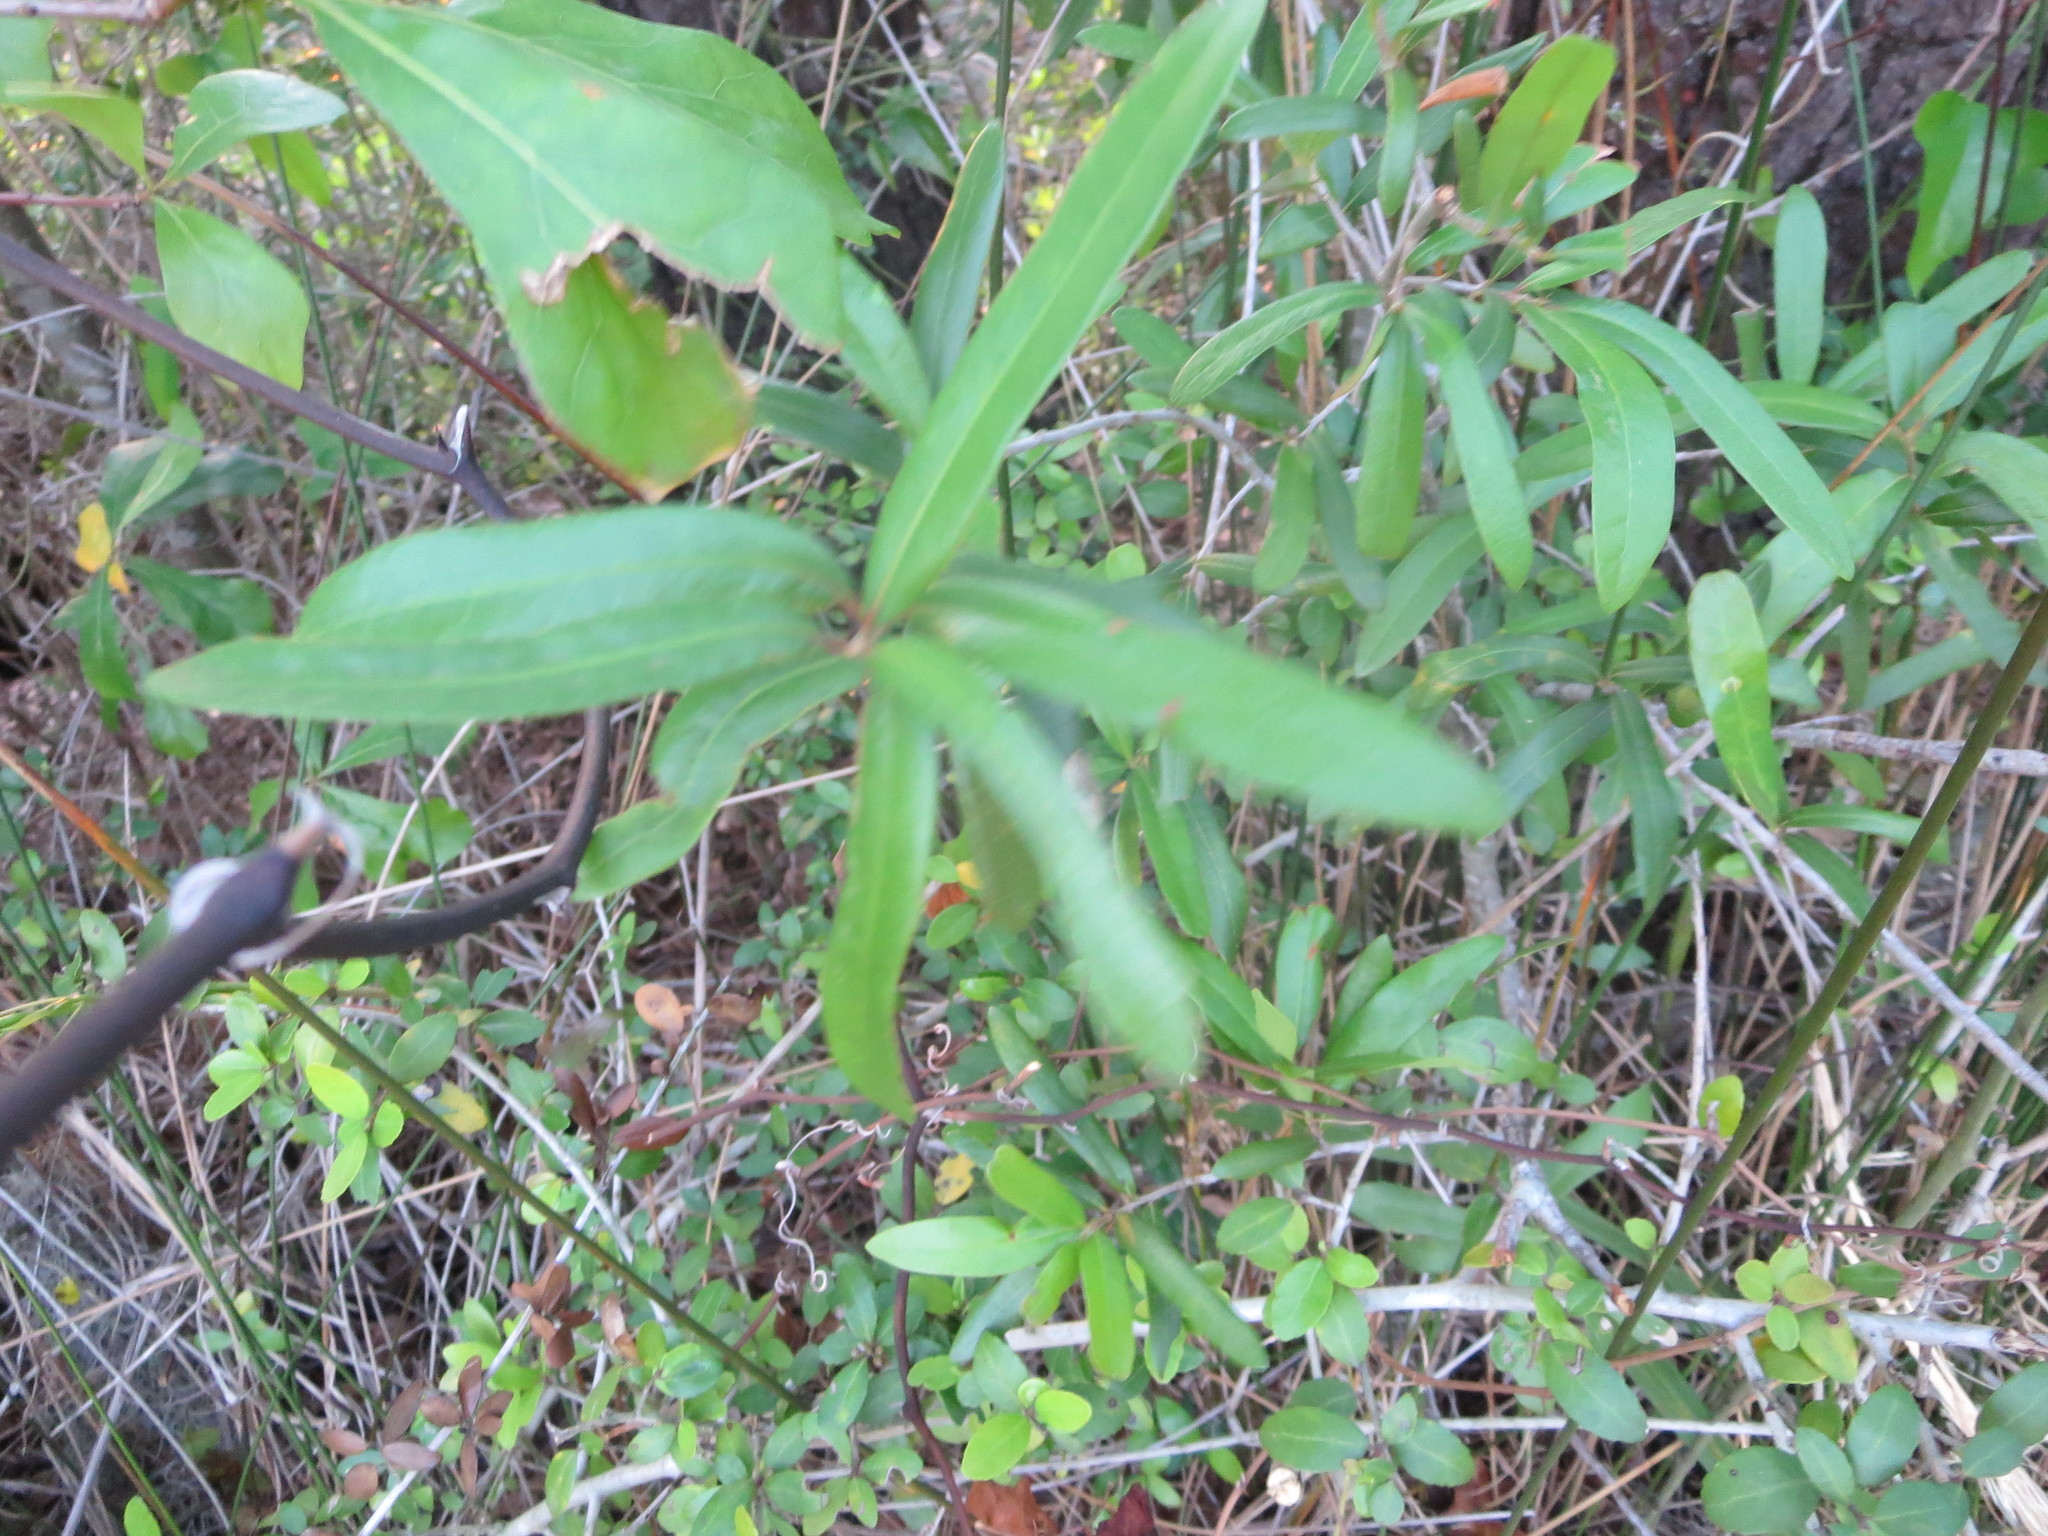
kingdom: Plantae
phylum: Tracheophyta
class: Magnoliopsida
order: Fagales
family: Fagaceae
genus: Quercus
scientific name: Quercus phellos
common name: Willow oak
